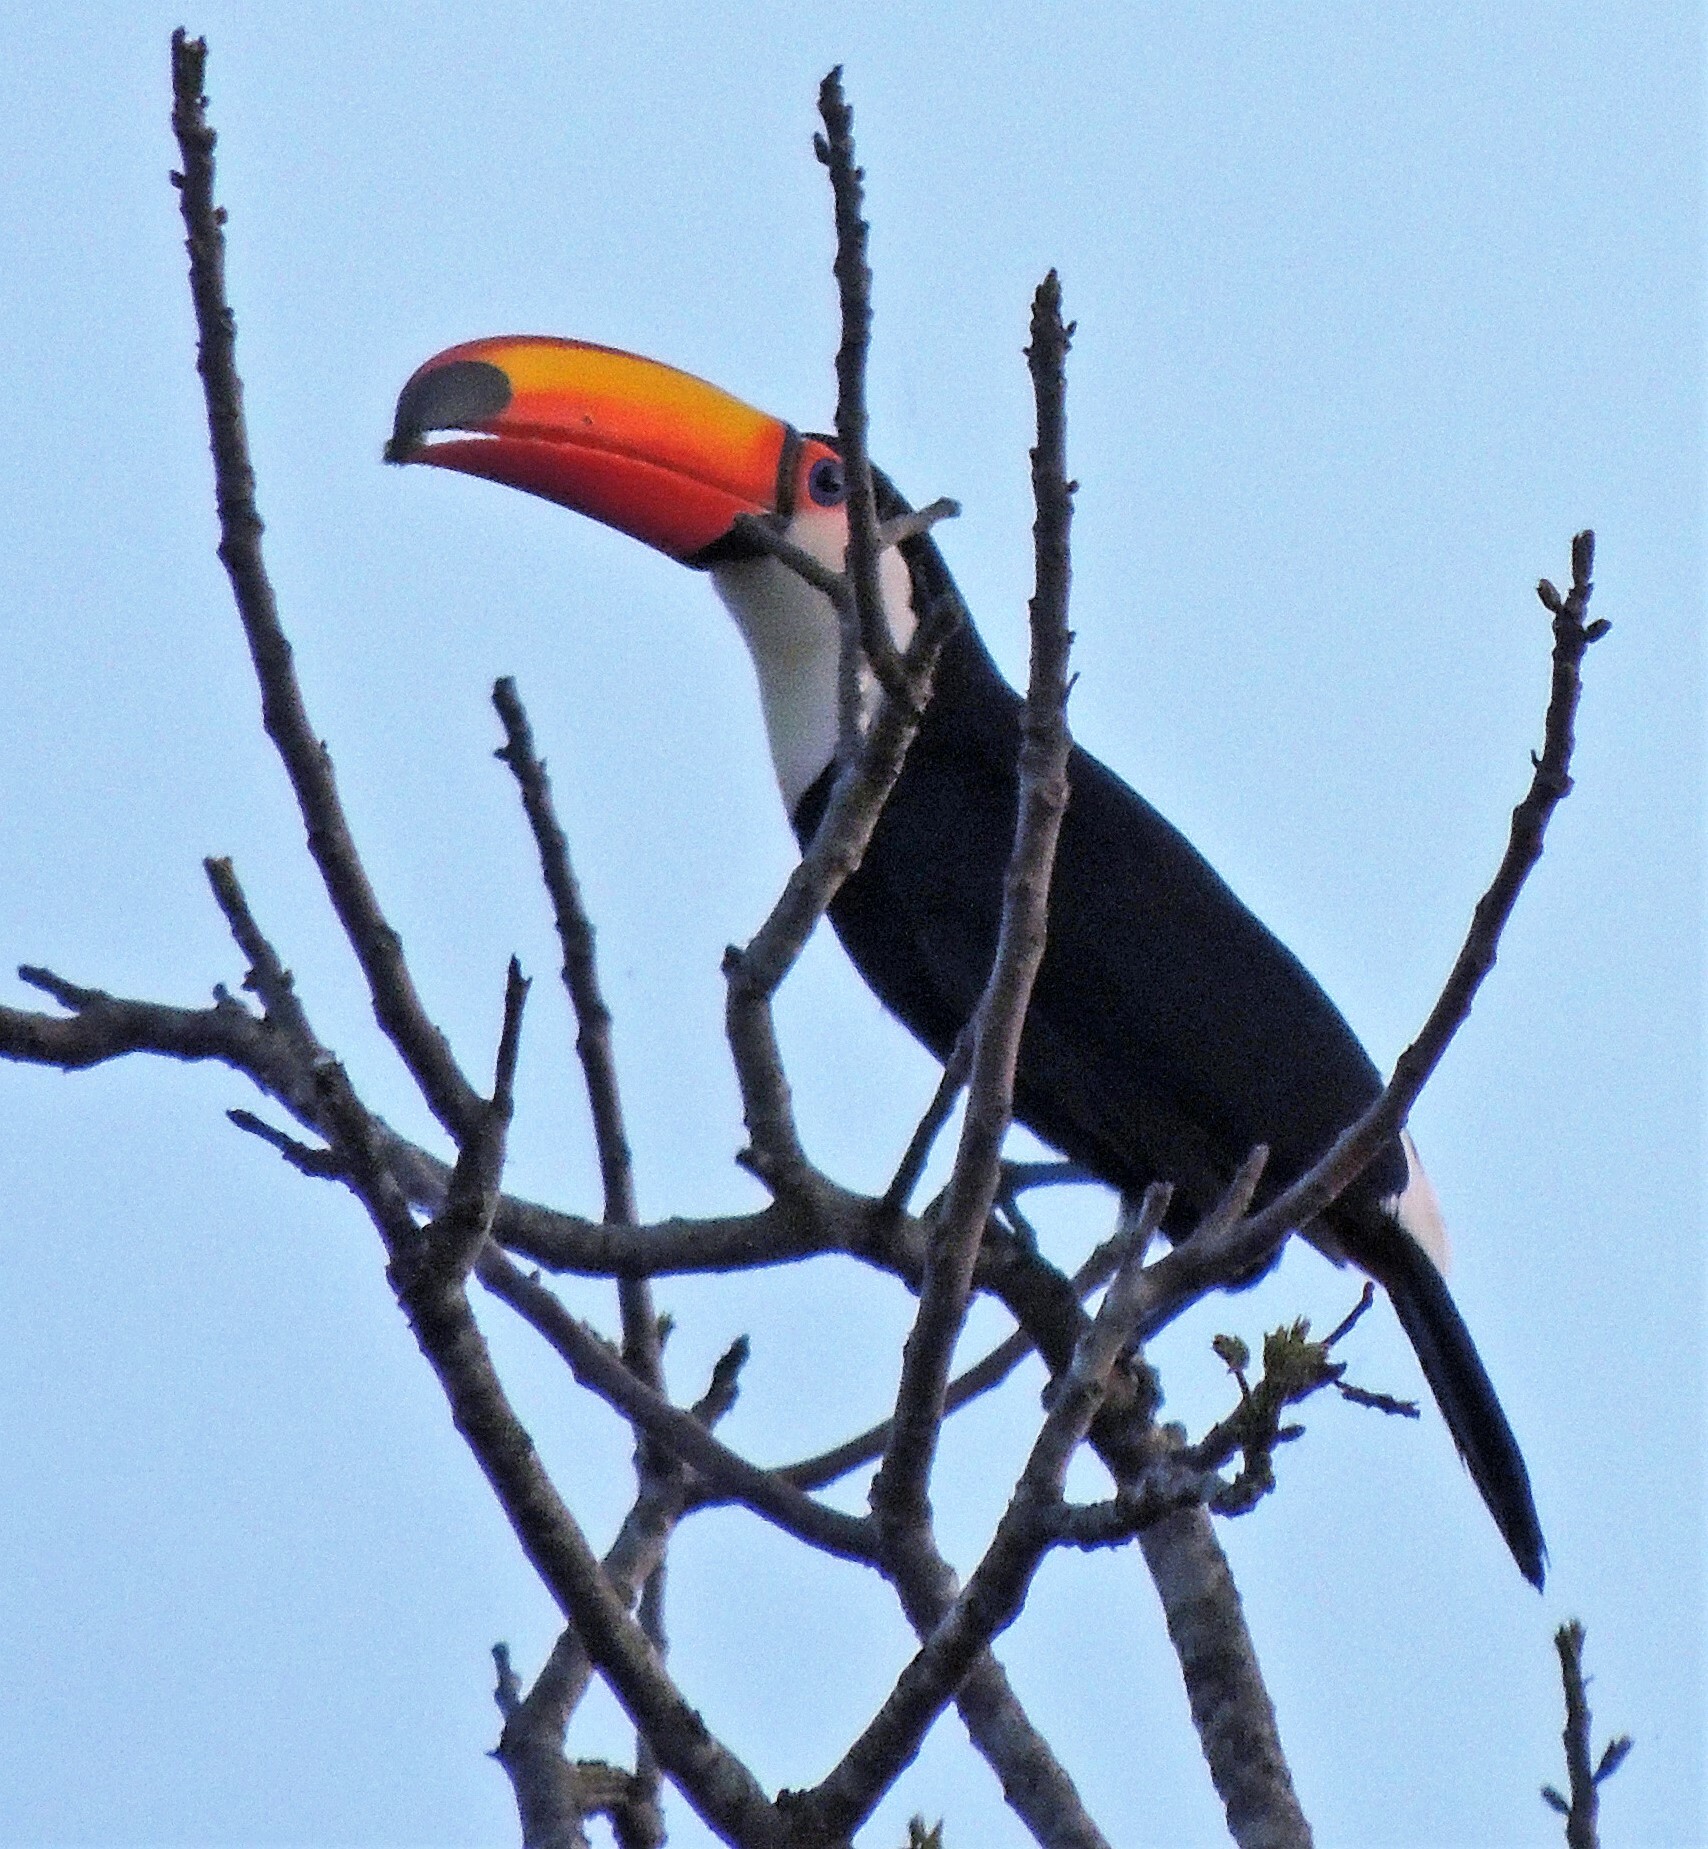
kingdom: Animalia
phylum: Chordata
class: Aves
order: Piciformes
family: Ramphastidae
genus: Ramphastos
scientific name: Ramphastos toco
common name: Toco toucan
